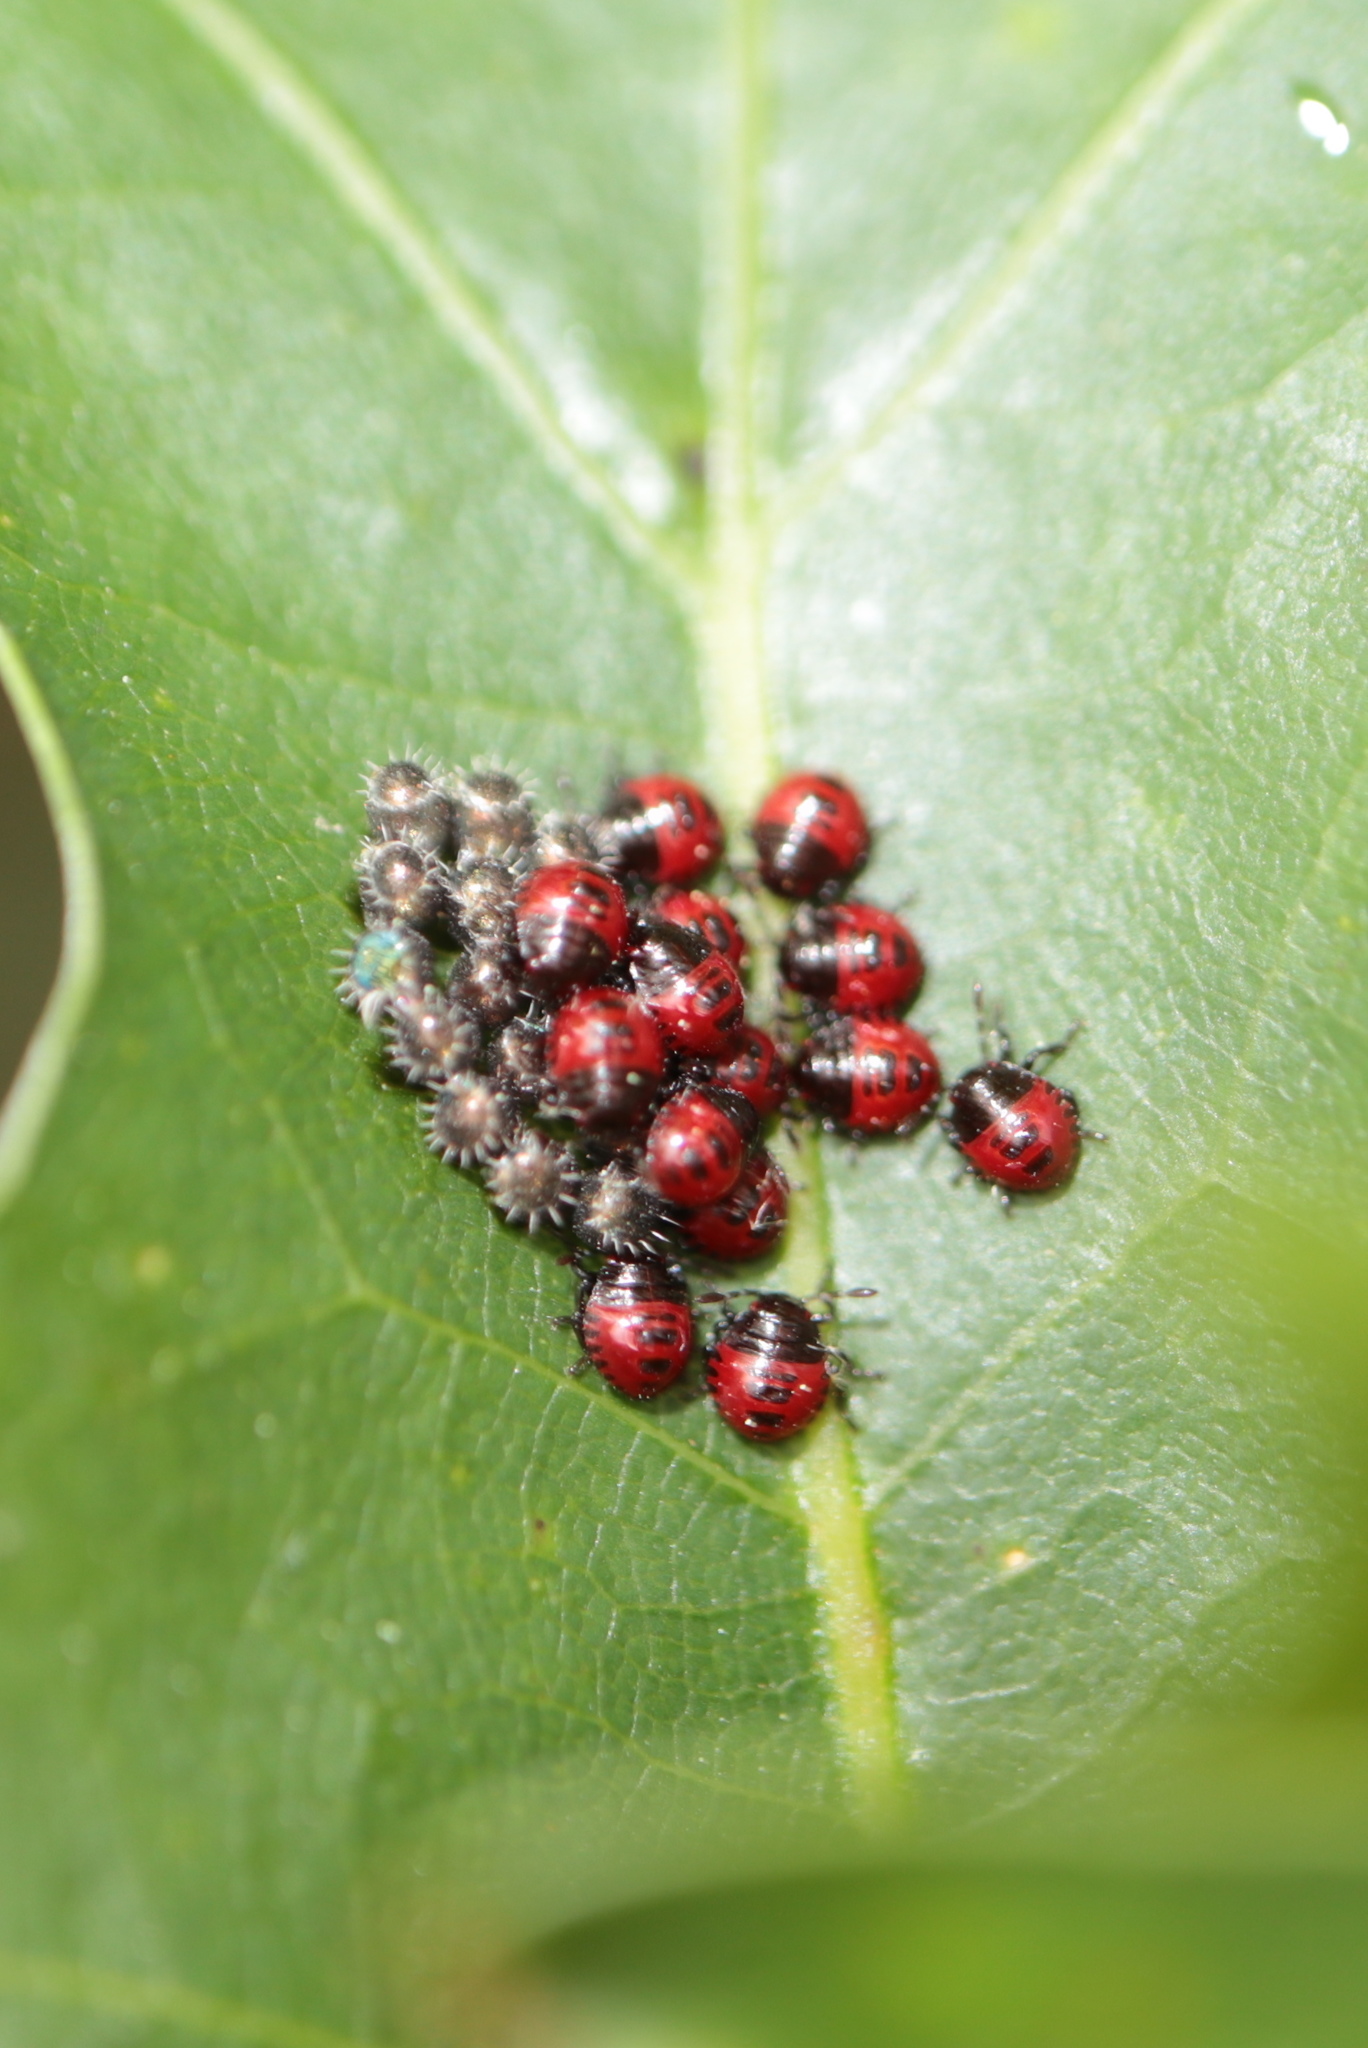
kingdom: Animalia
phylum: Arthropoda
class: Insecta
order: Hemiptera
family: Pentatomidae
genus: Podisus
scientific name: Podisus
